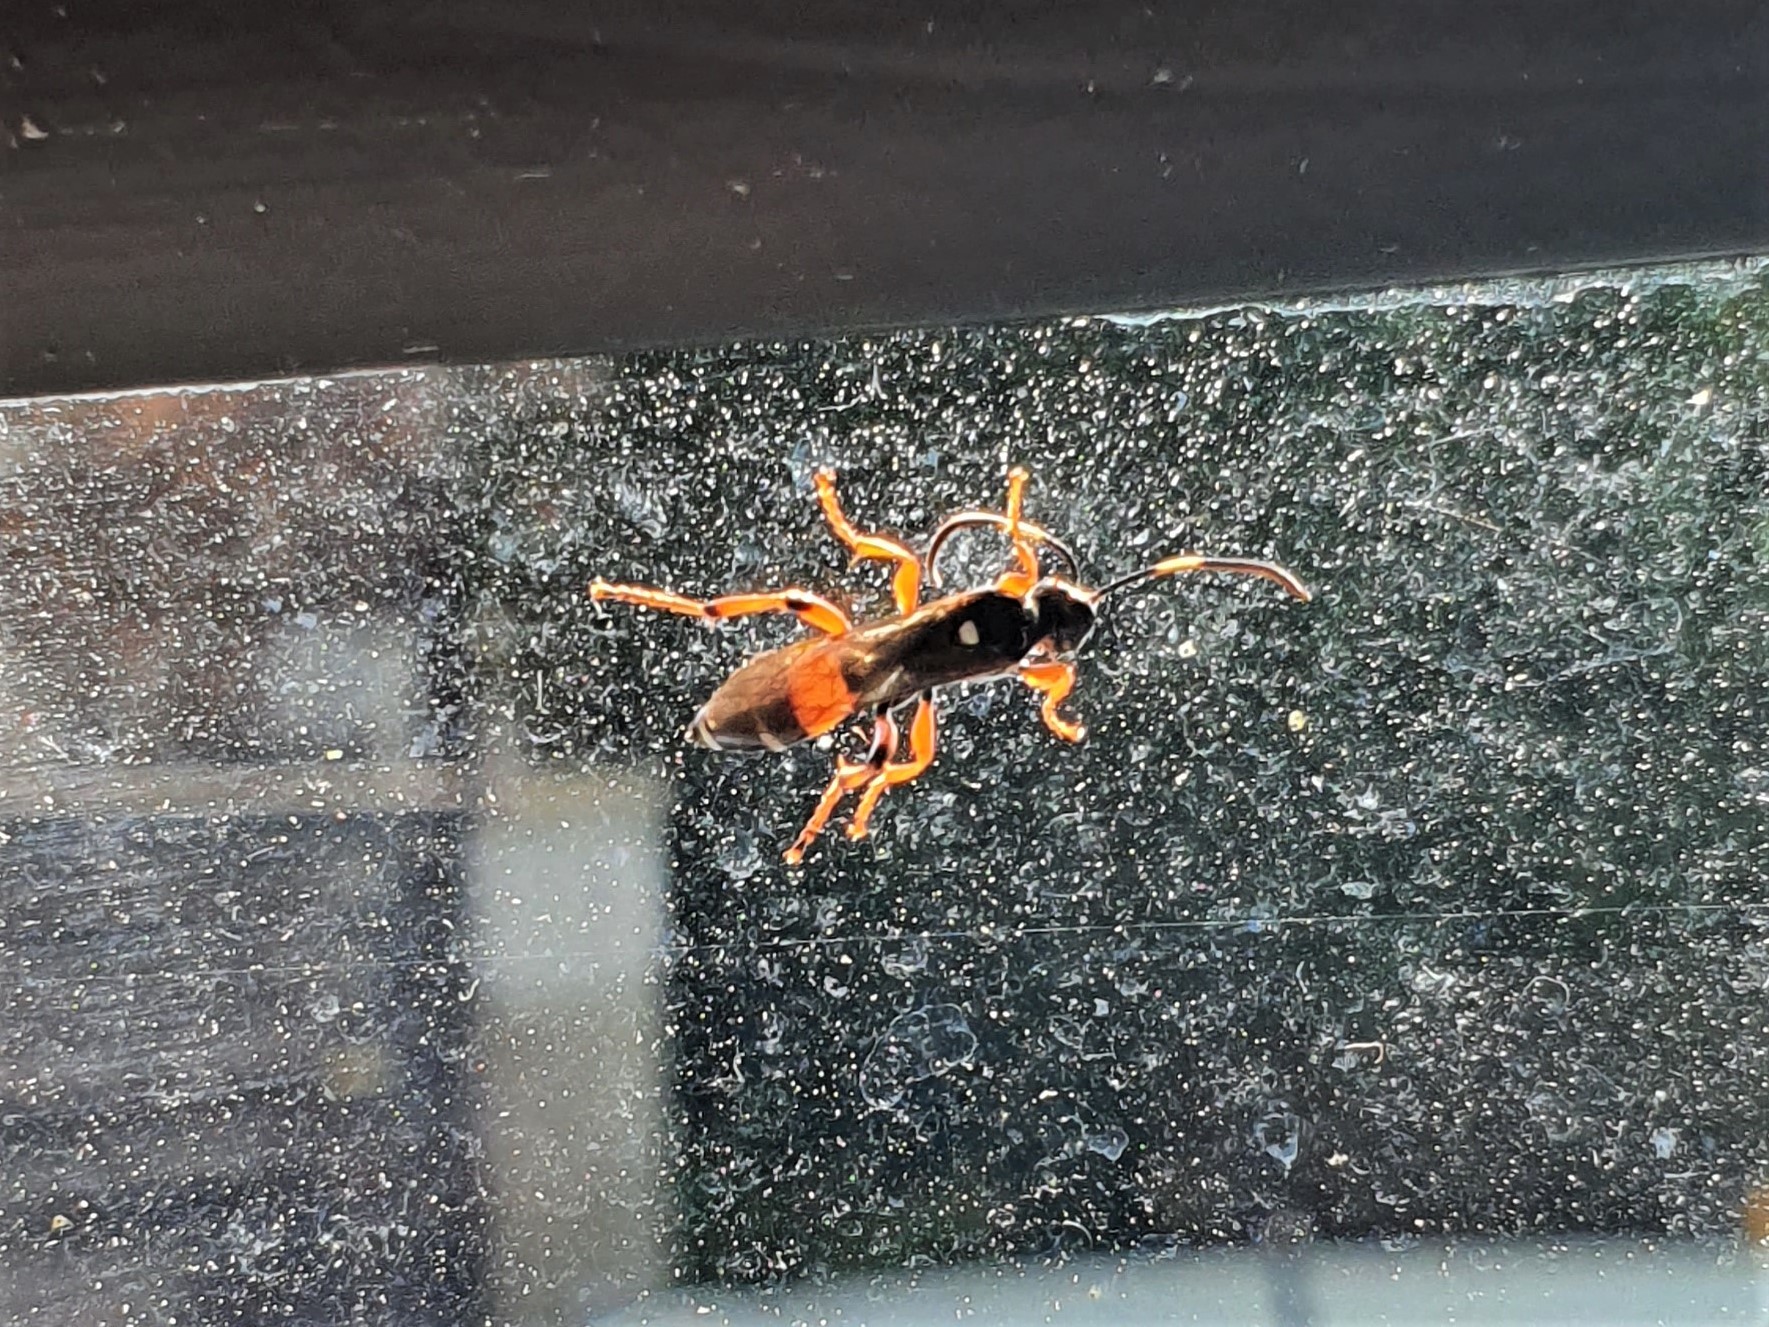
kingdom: Animalia
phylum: Arthropoda
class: Insecta
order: Hymenoptera
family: Ichneumonidae
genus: Ichneumon
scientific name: Ichneumon promissorius
